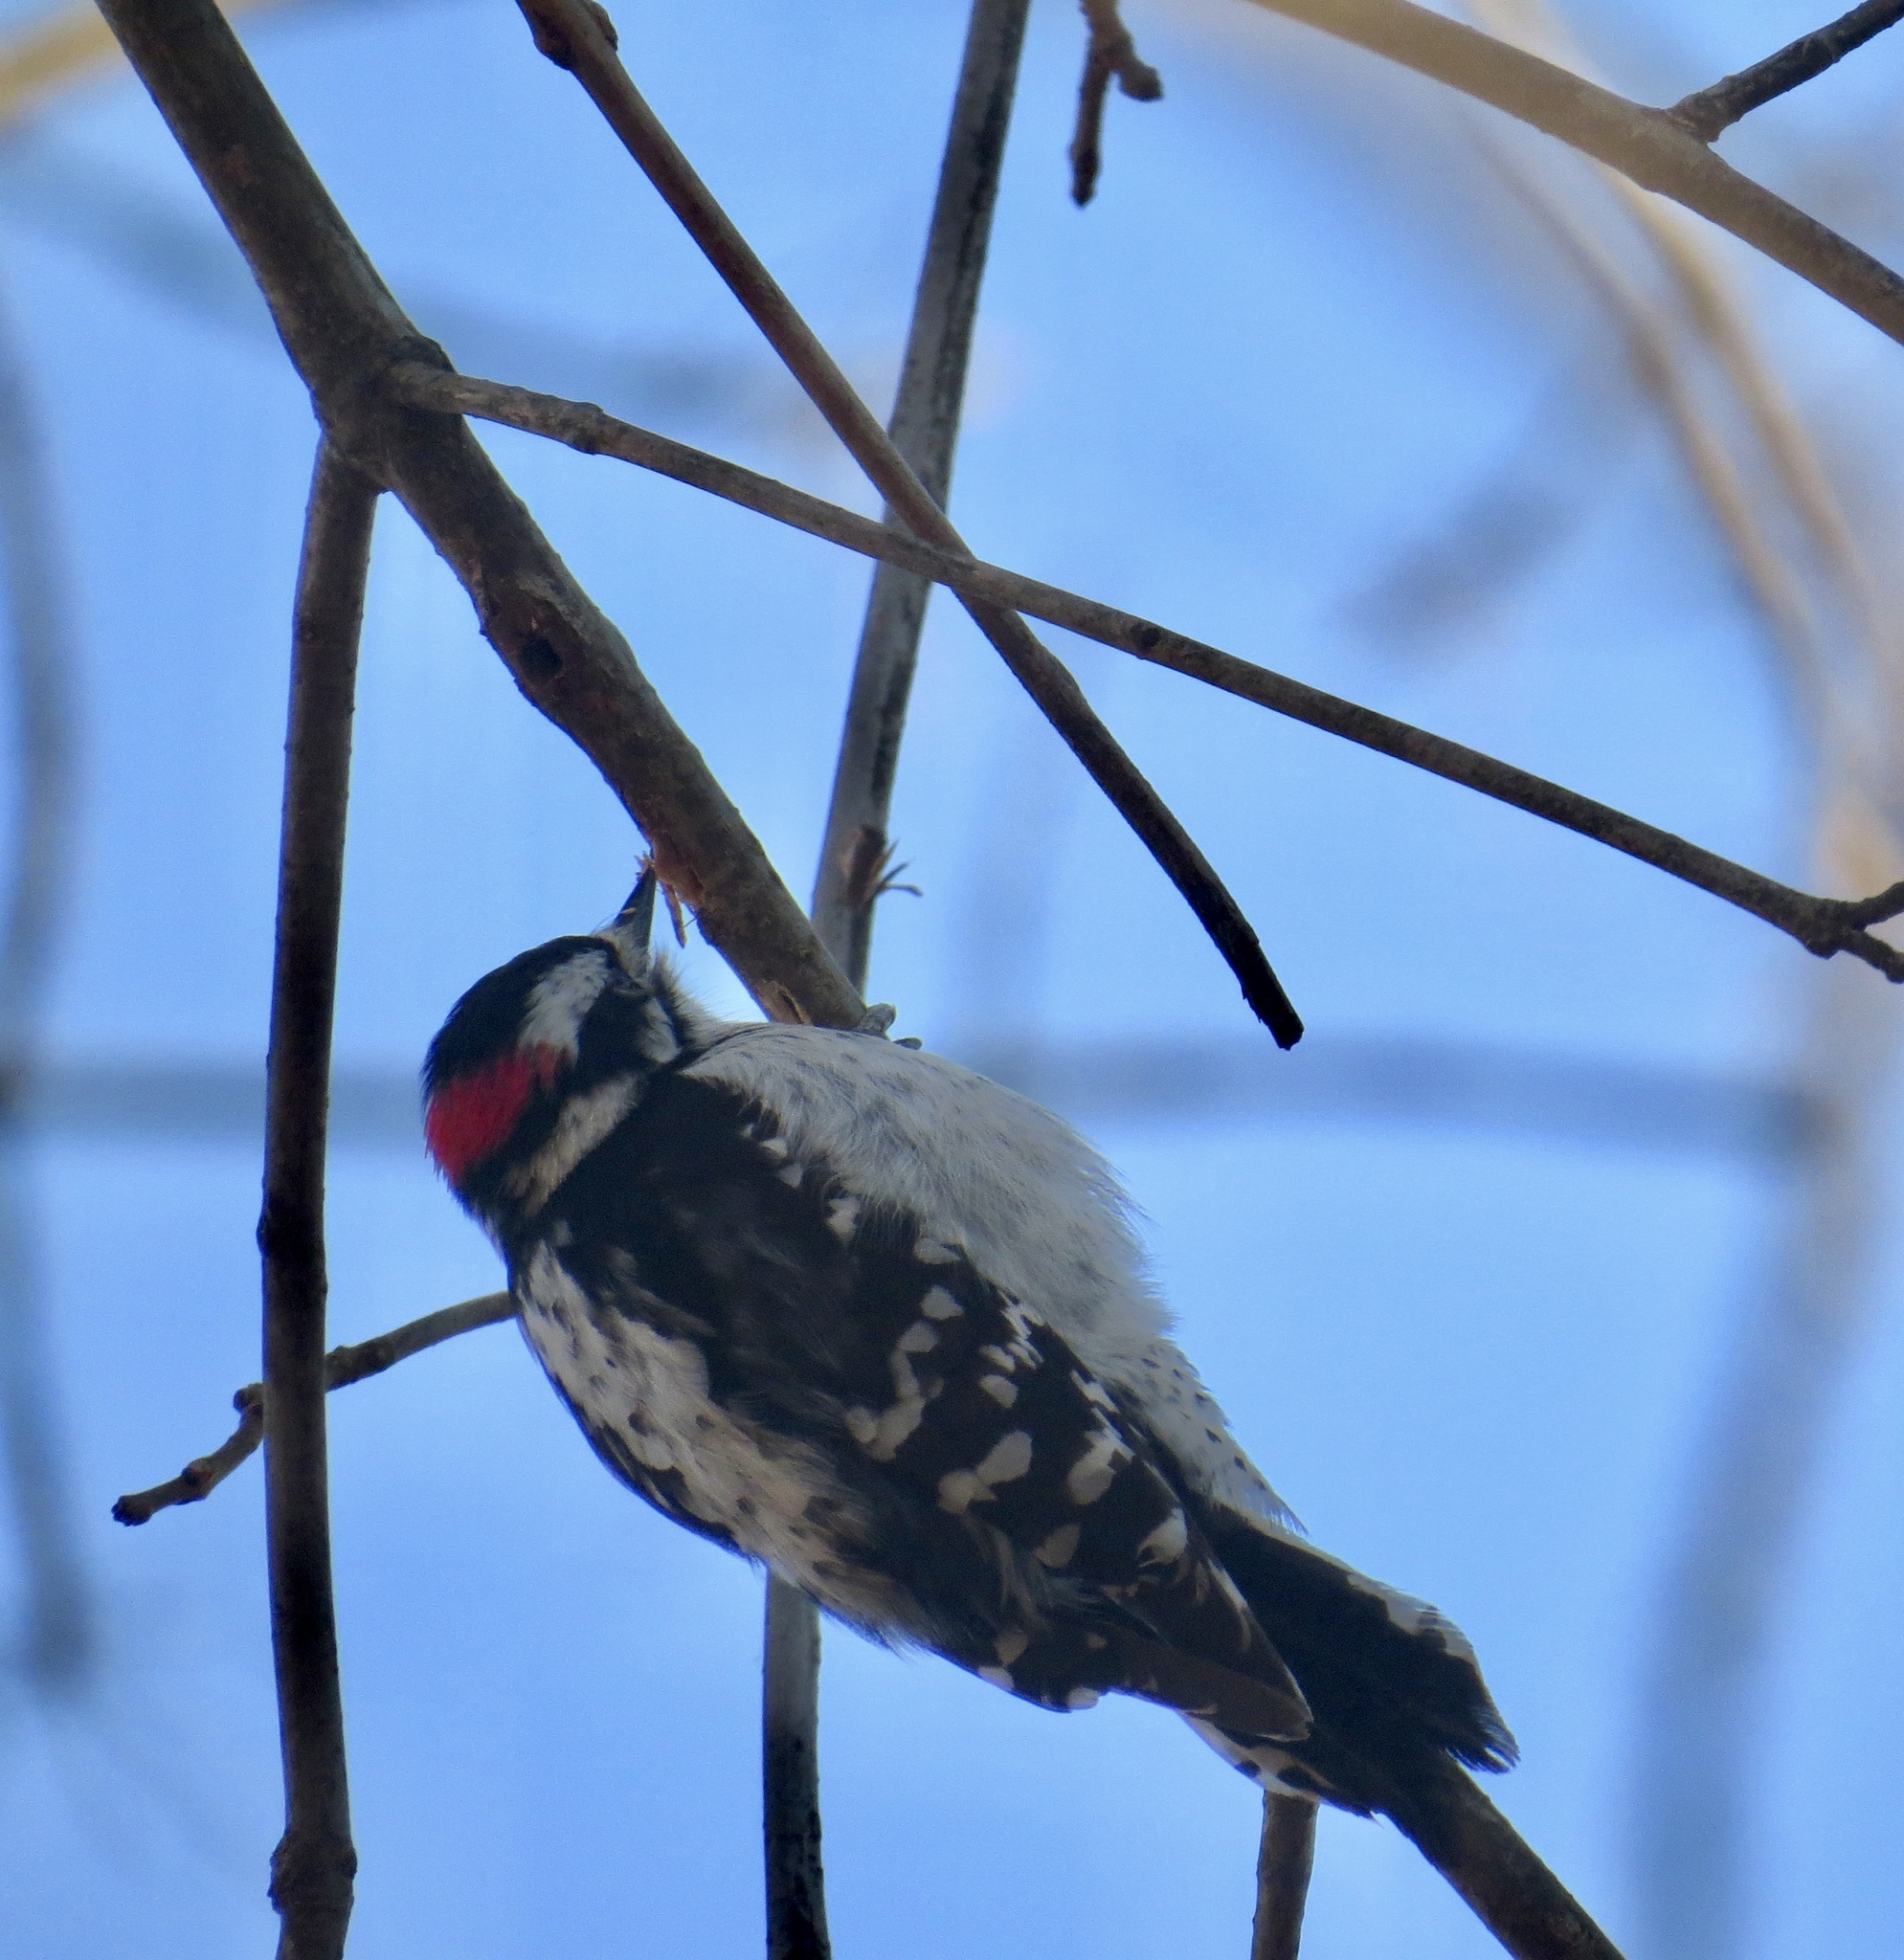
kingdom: Animalia
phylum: Chordata
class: Aves
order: Piciformes
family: Picidae
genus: Dryobates
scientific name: Dryobates pubescens
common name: Downy woodpecker
